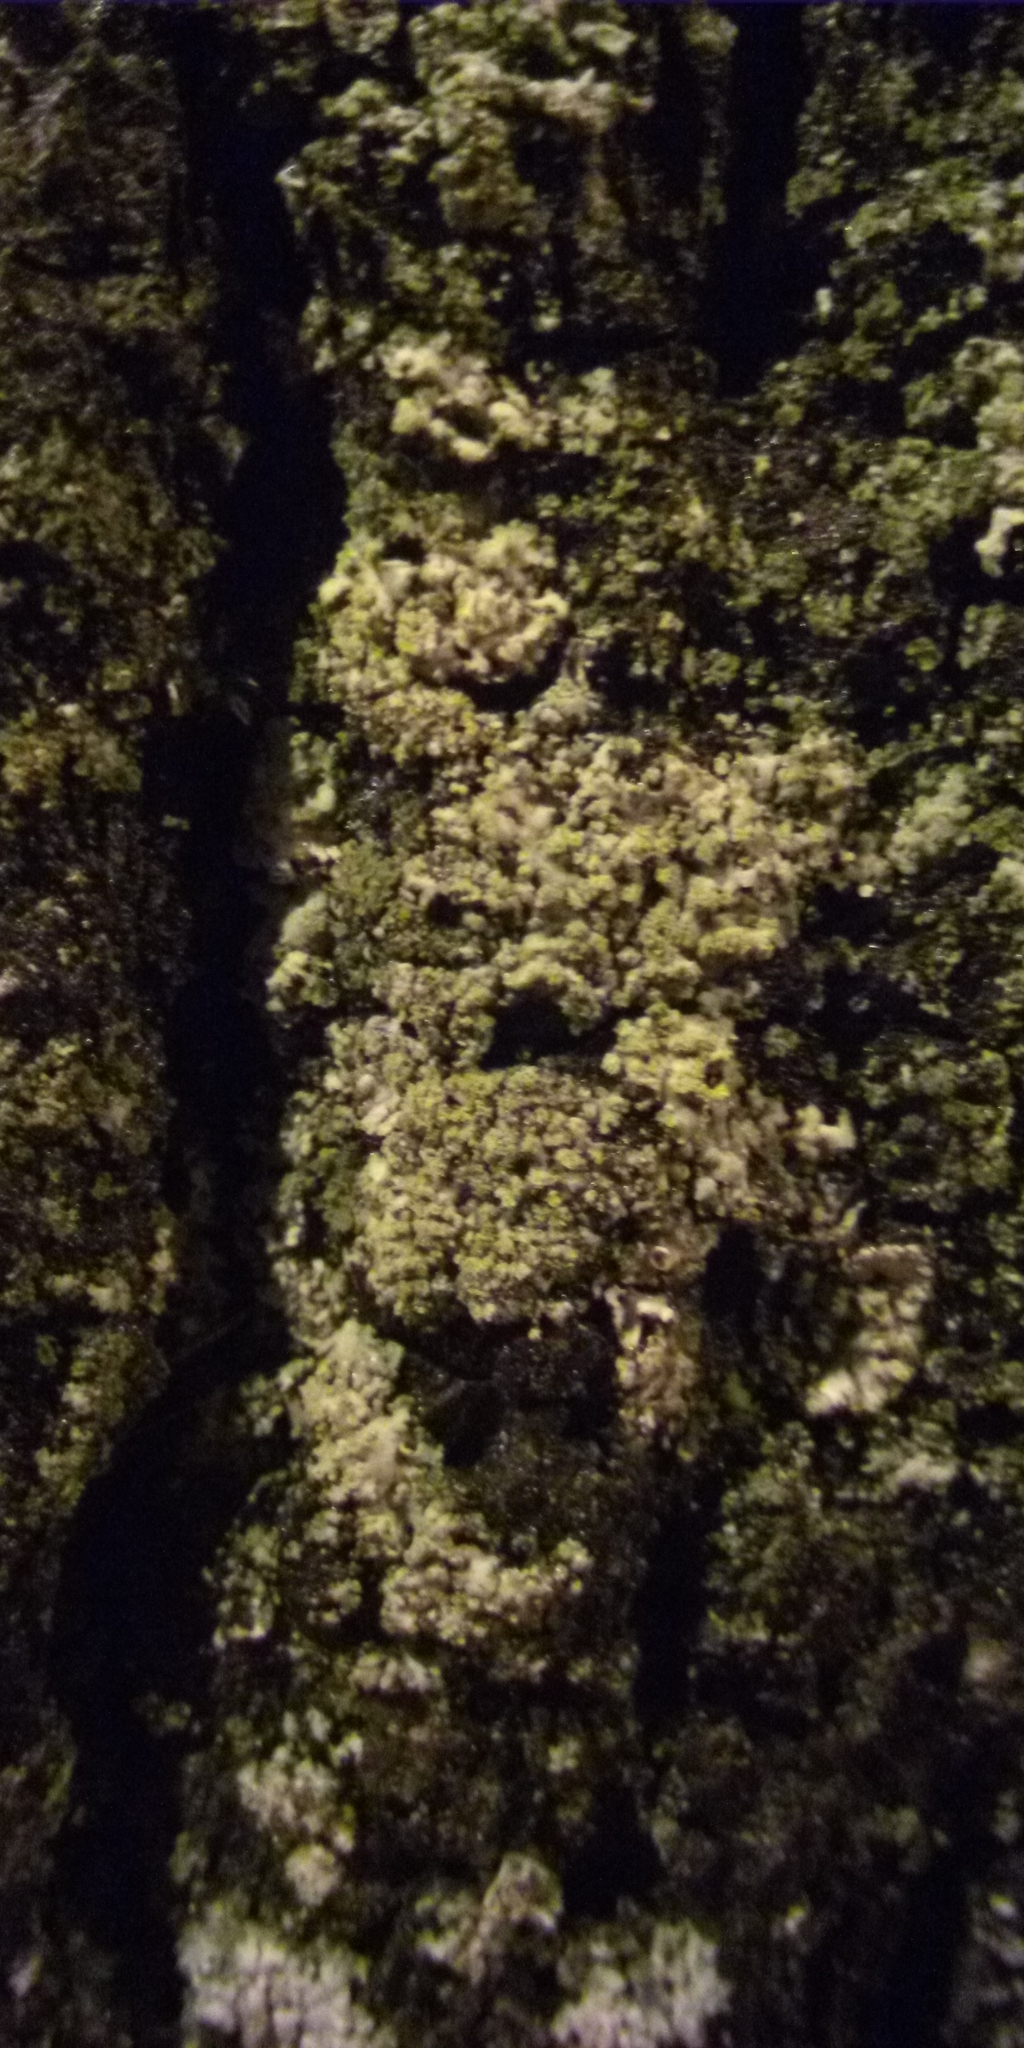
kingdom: Fungi
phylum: Ascomycota
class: Lecanoromycetes
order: Caliciales
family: Physciaceae
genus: Phaeophyscia
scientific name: Phaeophyscia orbicularis
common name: Mealy shadow lichen
